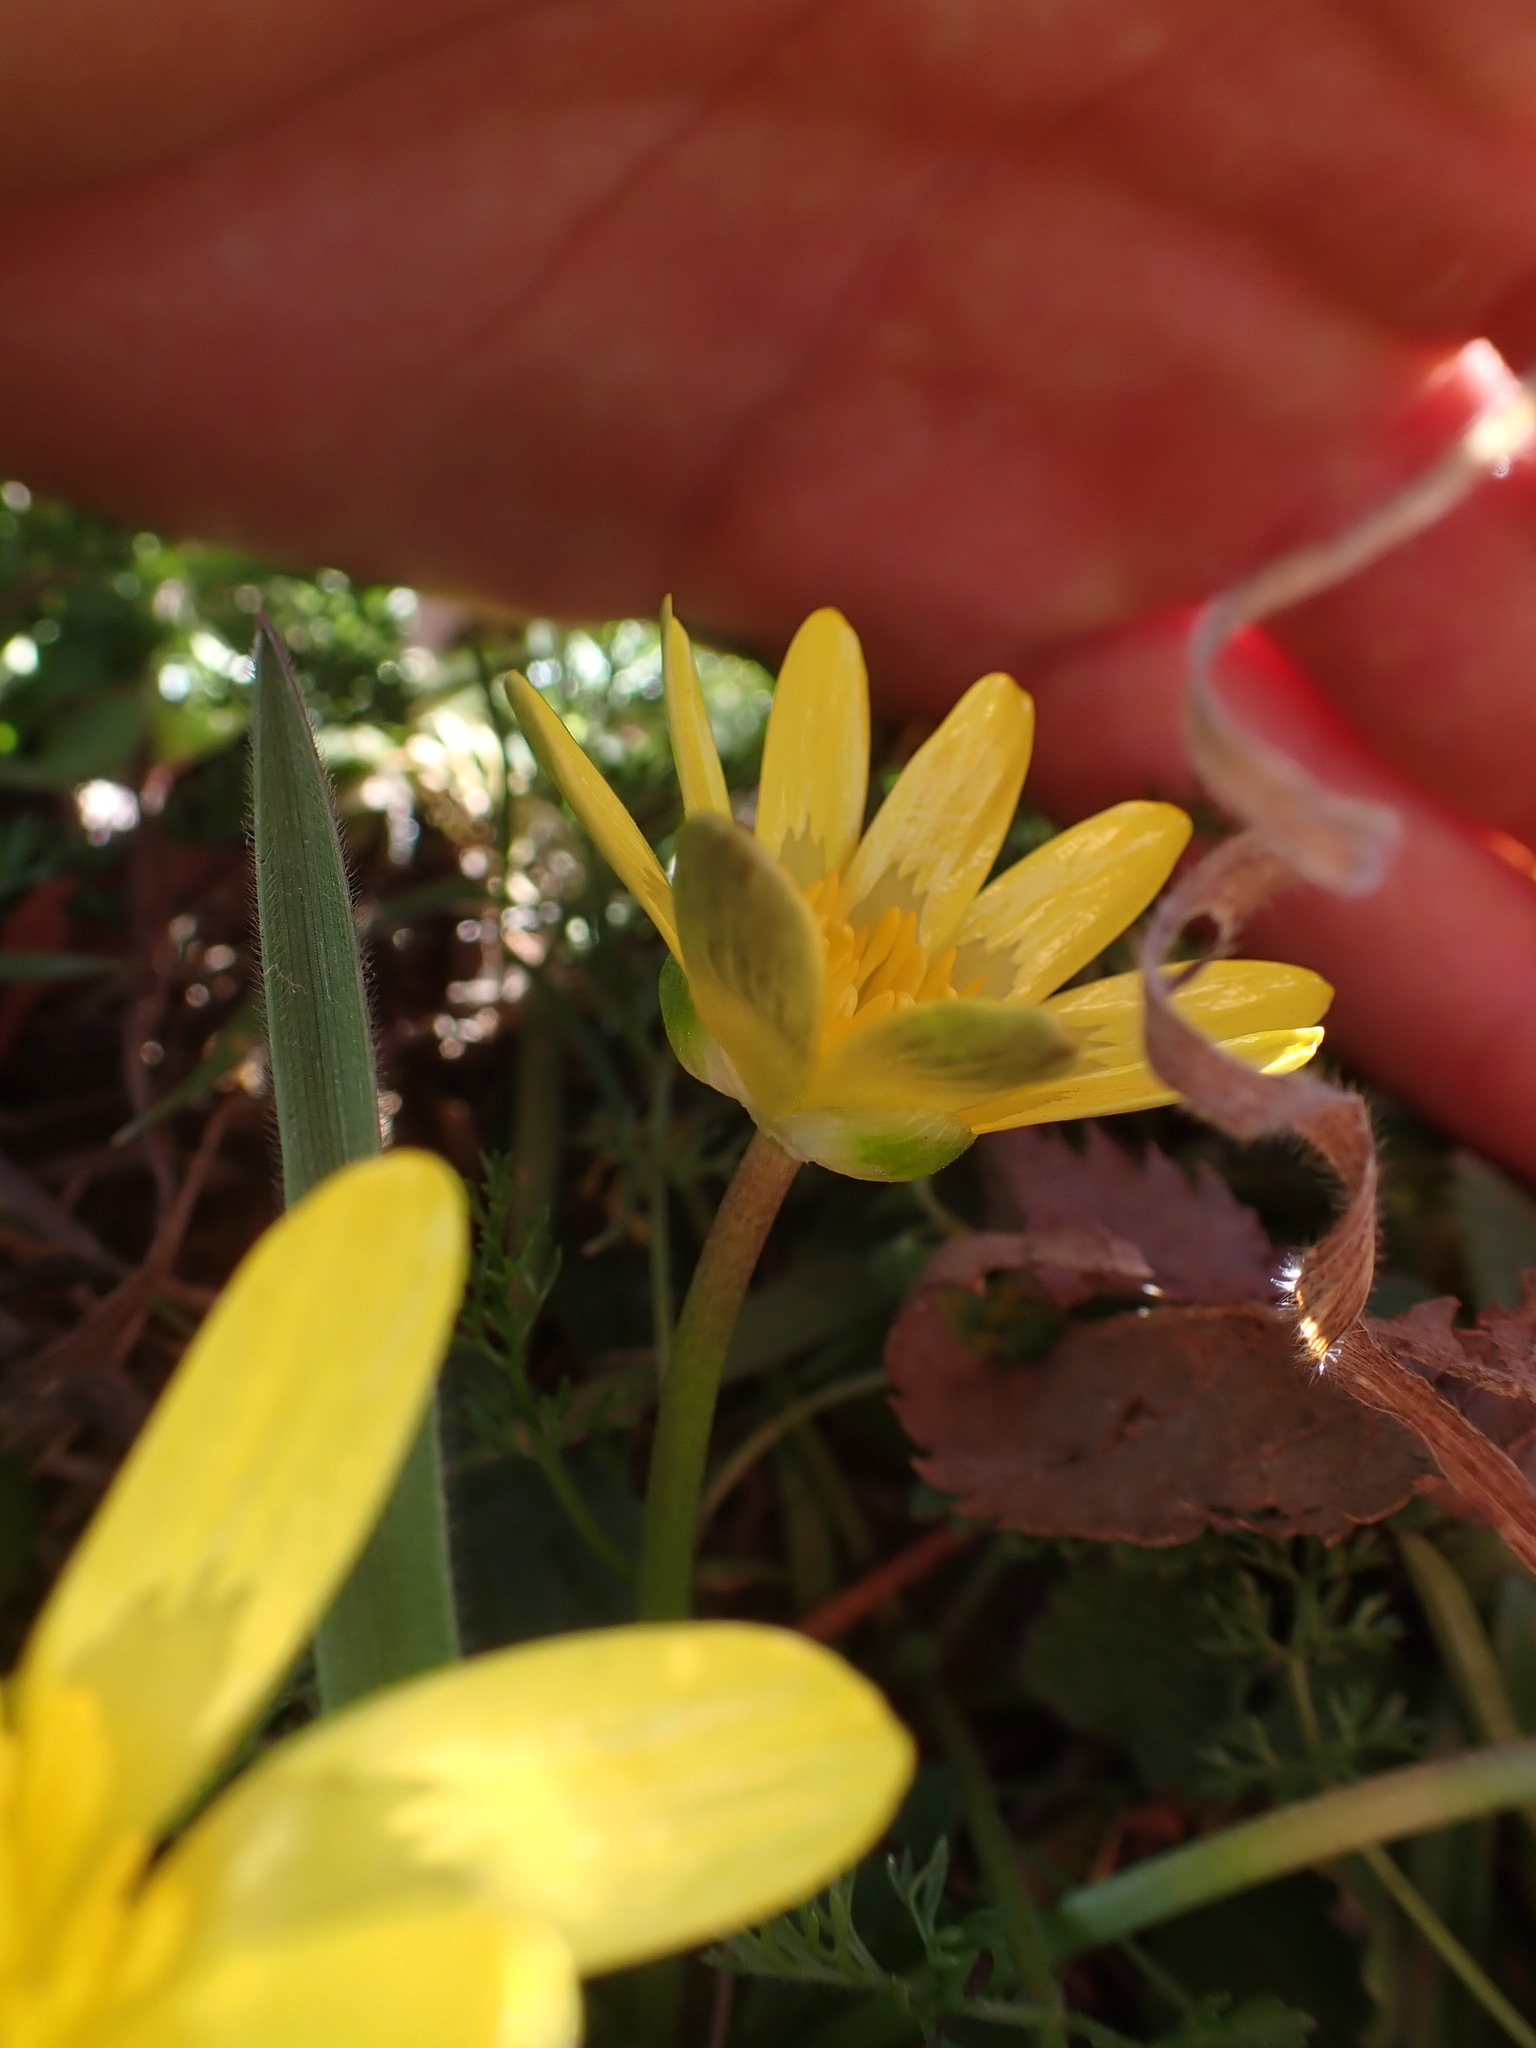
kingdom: Plantae
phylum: Tracheophyta
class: Magnoliopsida
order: Ranunculales
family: Ranunculaceae
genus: Ficaria
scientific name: Ficaria verna
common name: Lesser celandine
